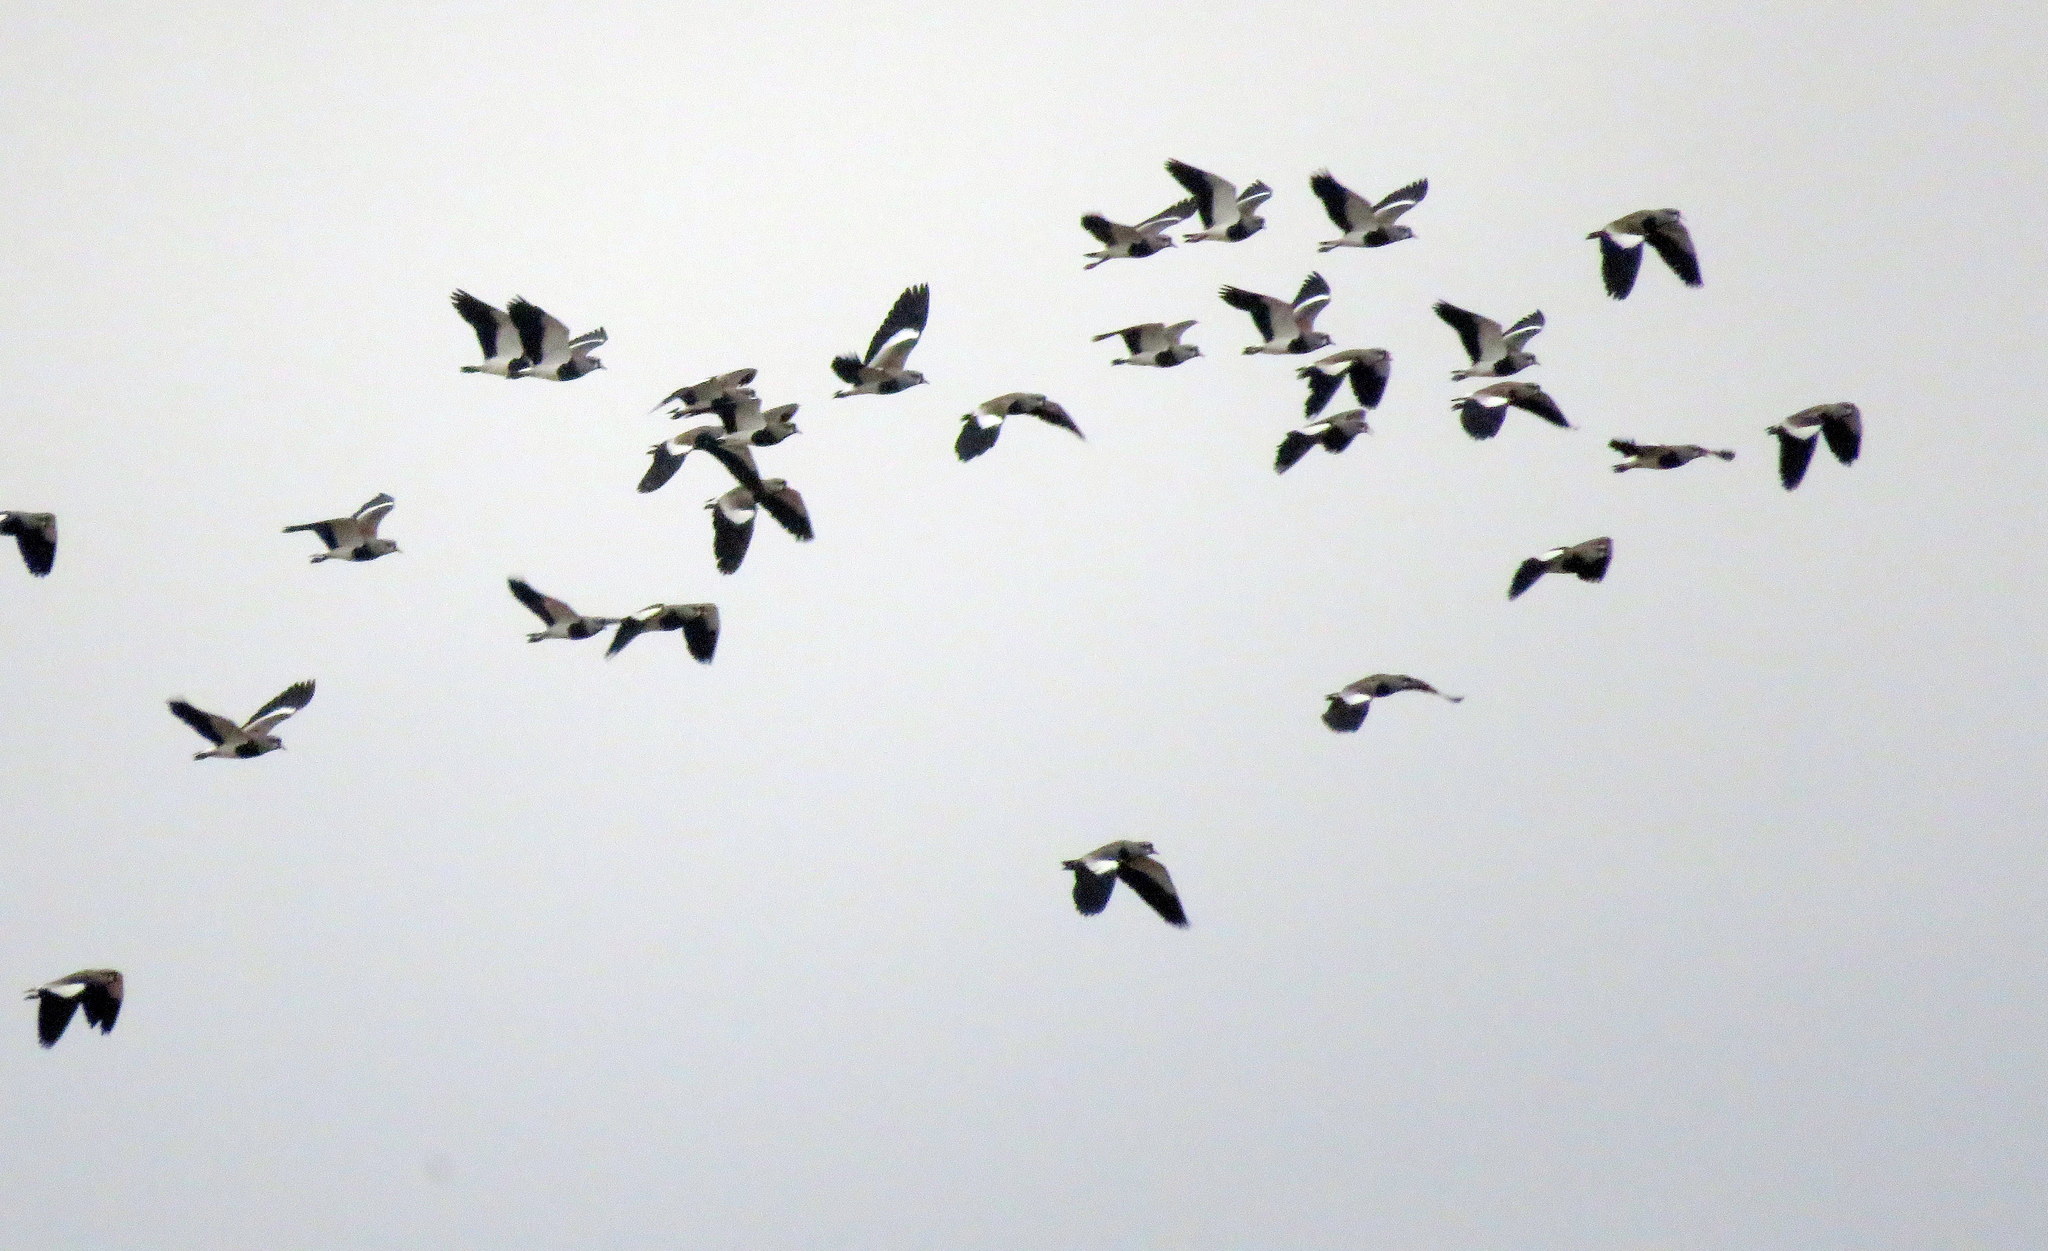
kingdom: Animalia
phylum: Chordata
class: Aves
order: Charadriiformes
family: Charadriidae
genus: Vanellus
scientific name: Vanellus chilensis
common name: Southern lapwing
